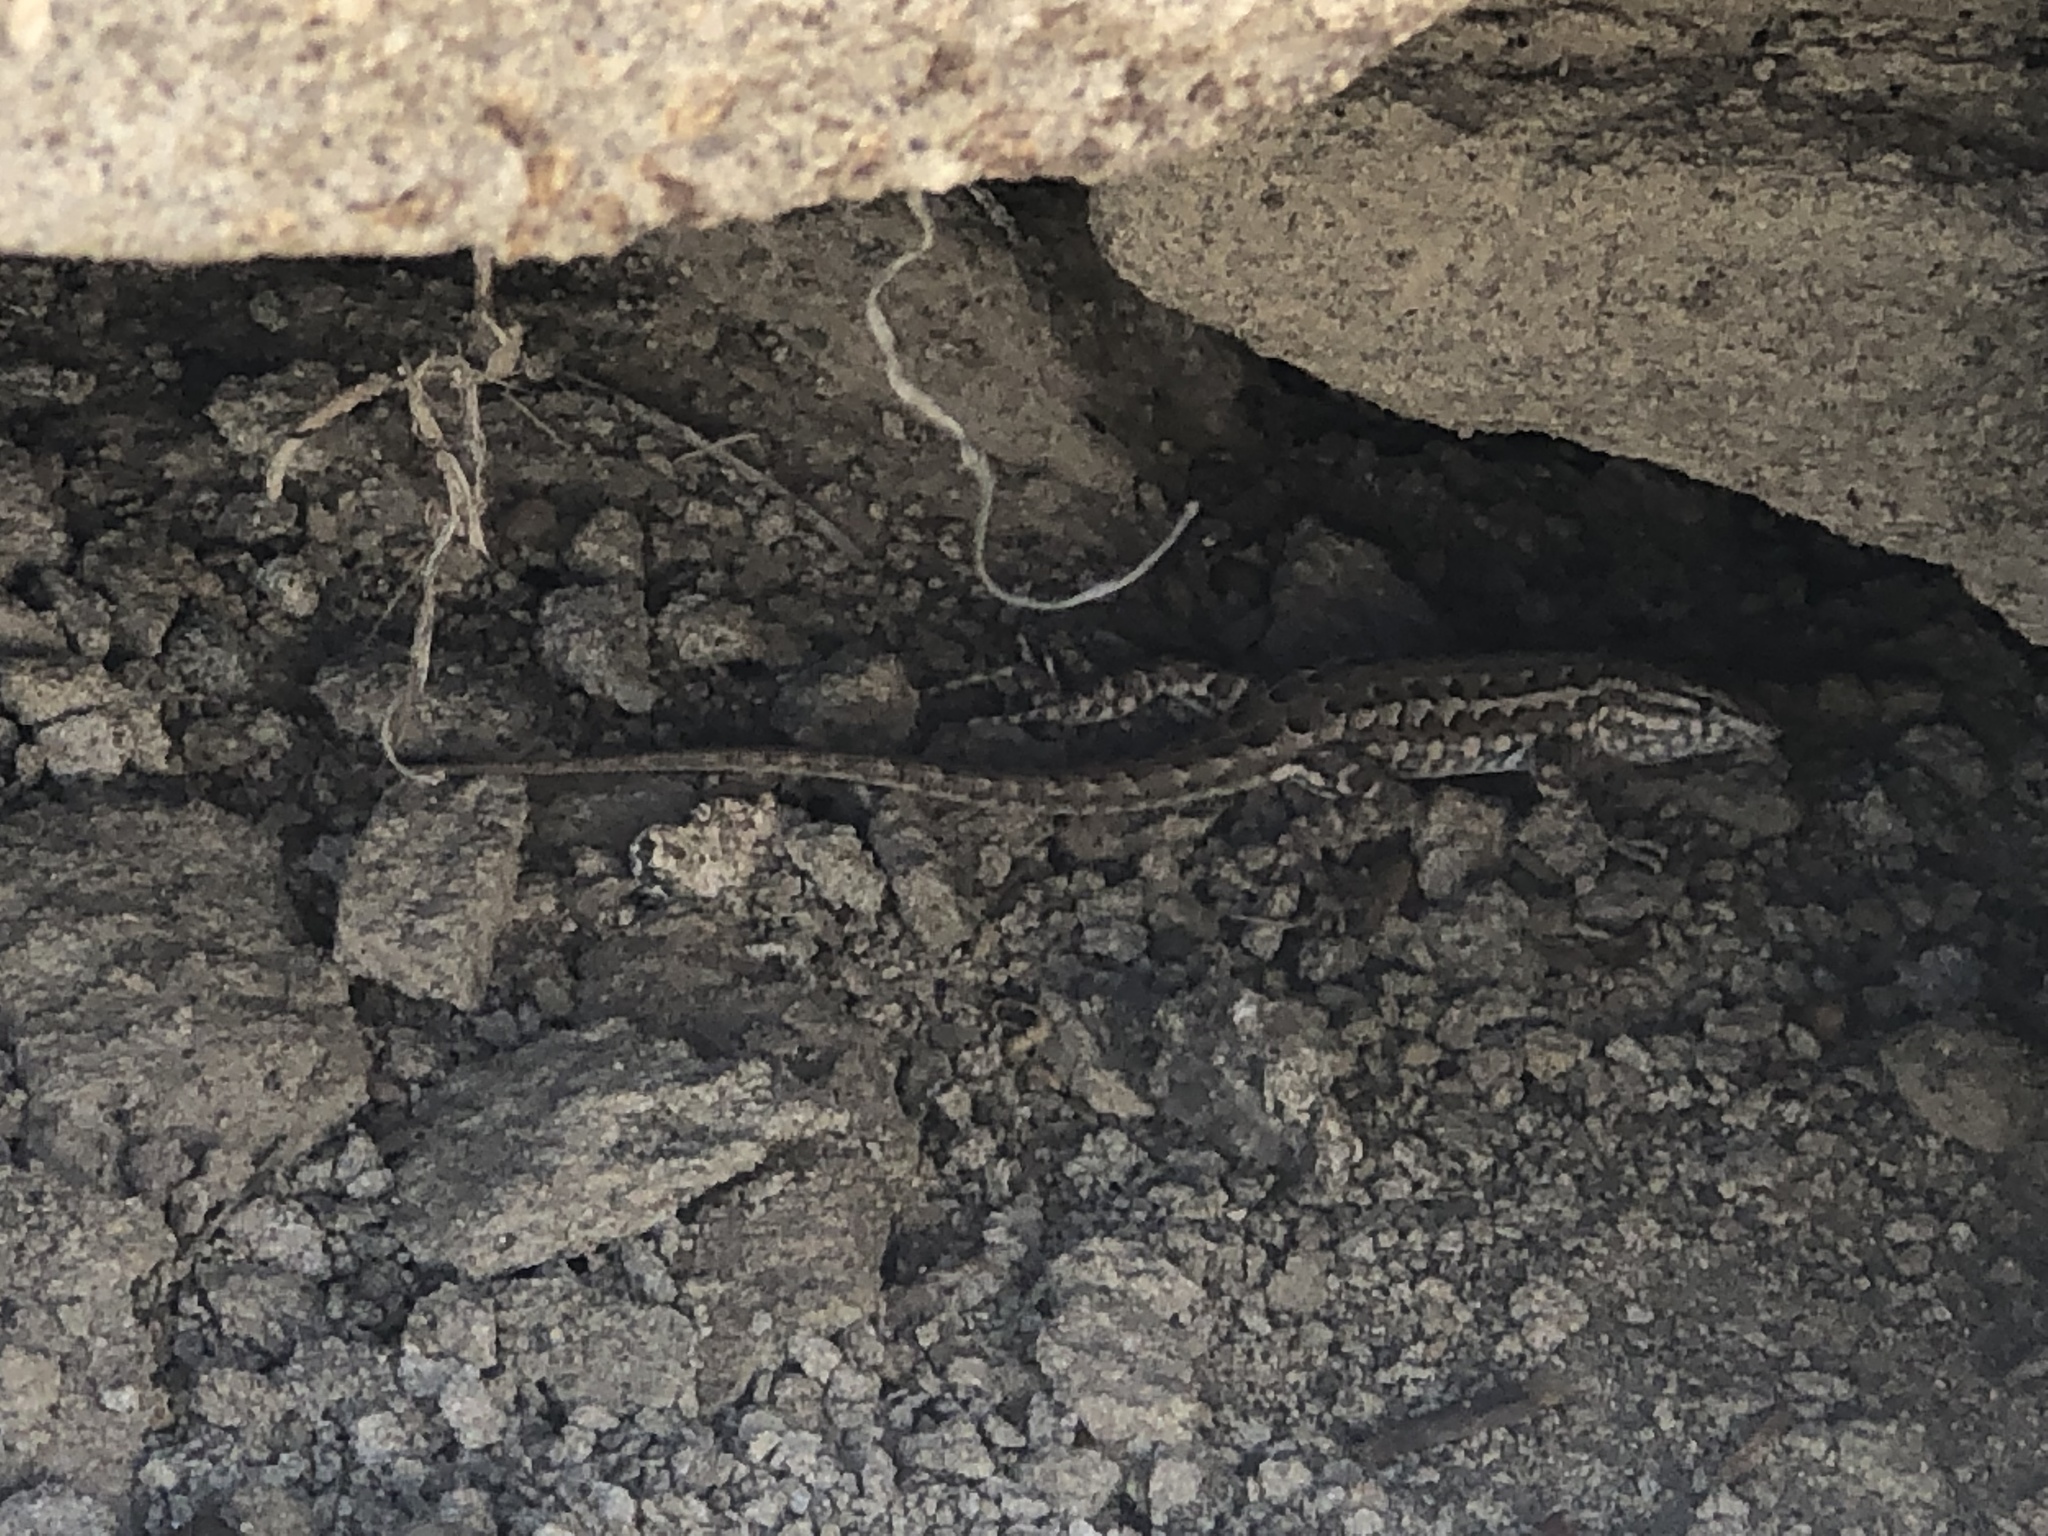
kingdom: Animalia
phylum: Chordata
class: Squamata
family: Phrynosomatidae
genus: Uta
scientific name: Uta stansburiana
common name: Side-blotched lizard
